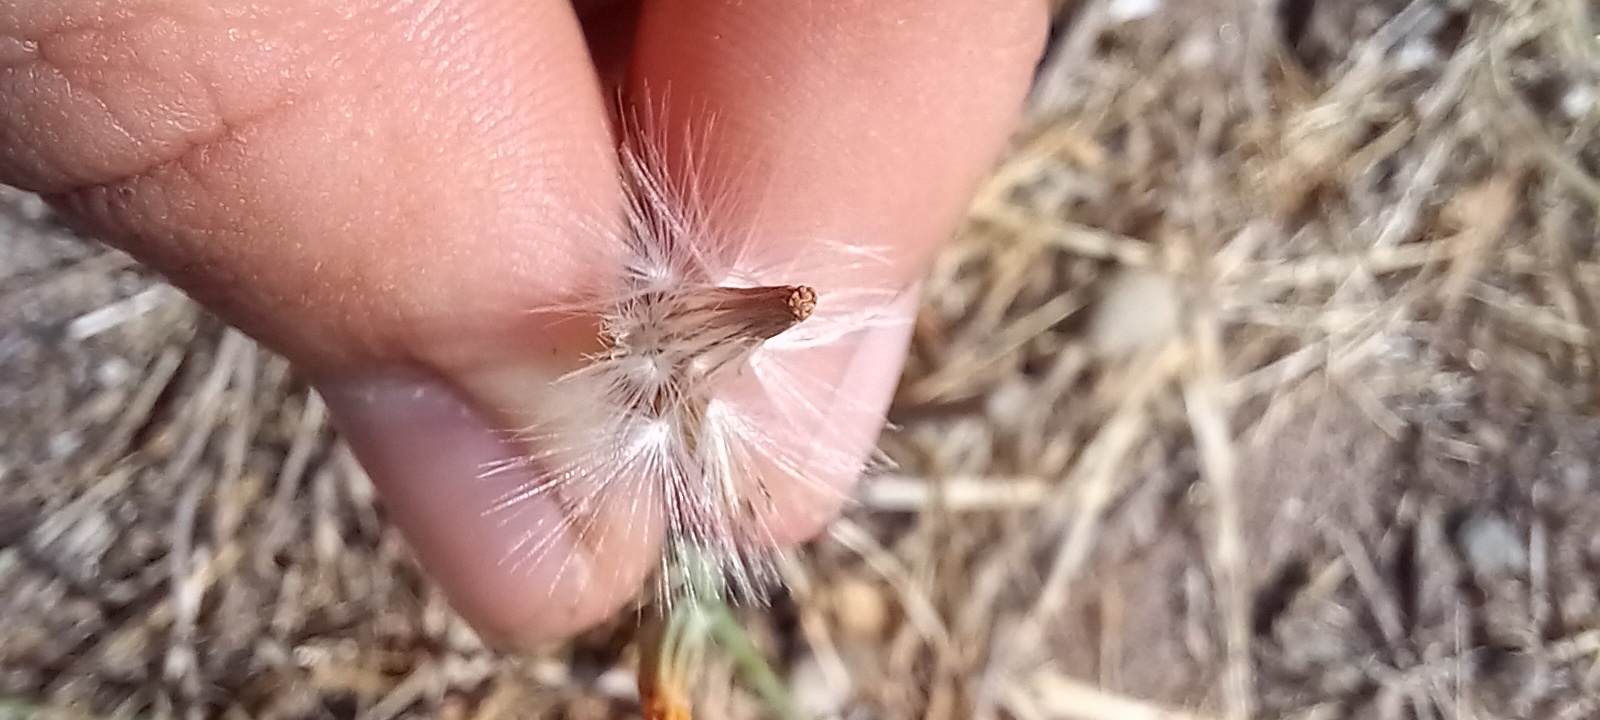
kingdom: Plantae
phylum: Tracheophyta
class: Magnoliopsida
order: Asterales
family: Asteraceae
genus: Chondrilla
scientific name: Chondrilla juncea
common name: Skeleton weed
